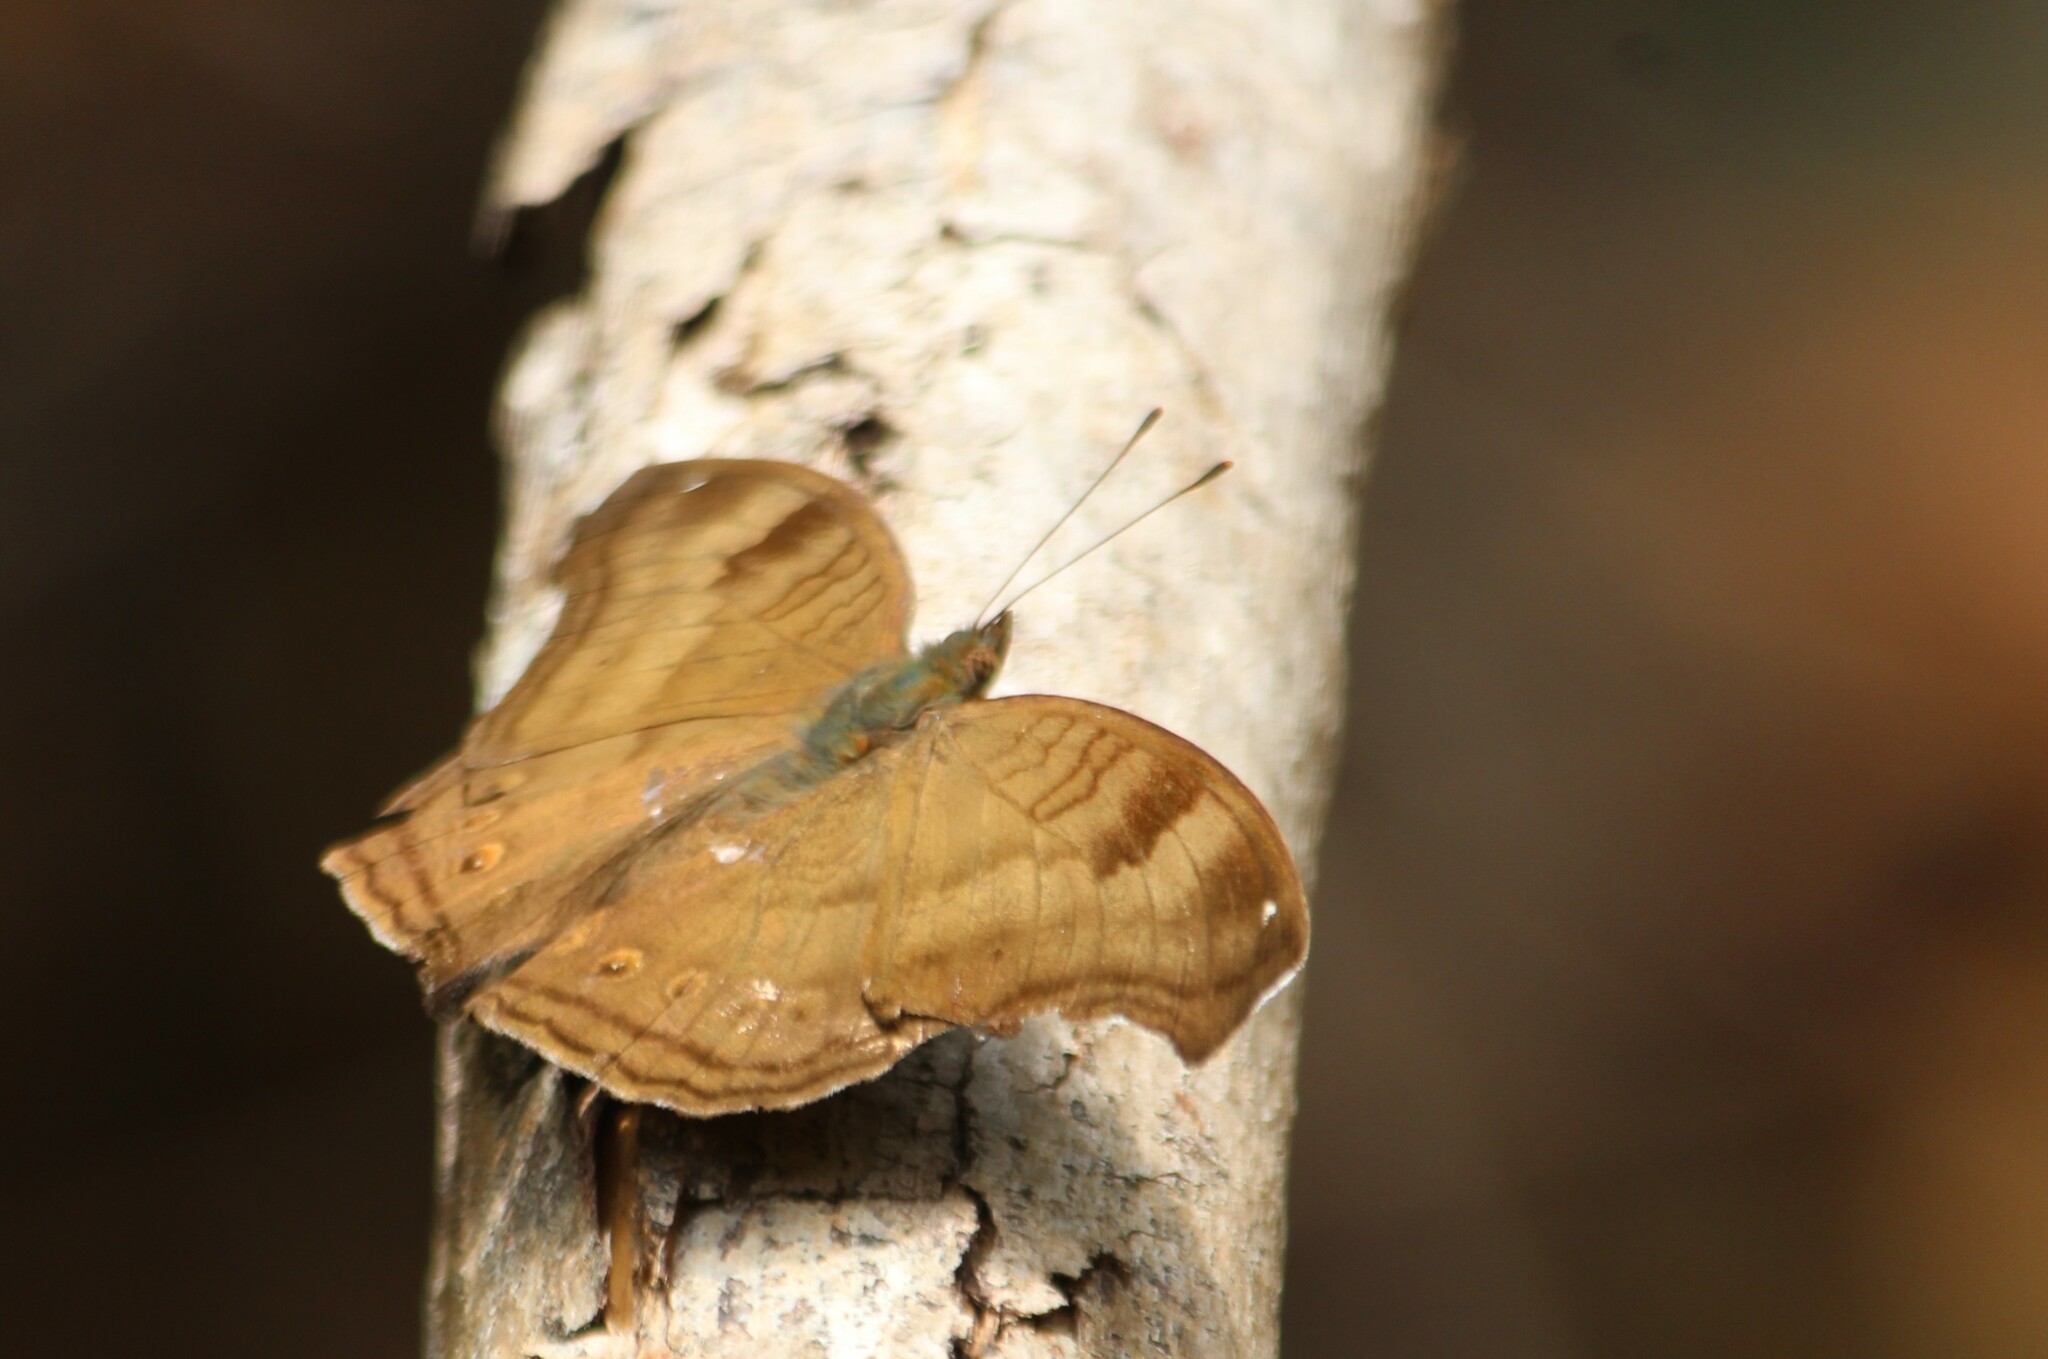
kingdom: Animalia
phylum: Arthropoda
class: Insecta
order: Lepidoptera
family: Nymphalidae
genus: Junonia
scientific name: Junonia iphita
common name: Chocolate pansy
